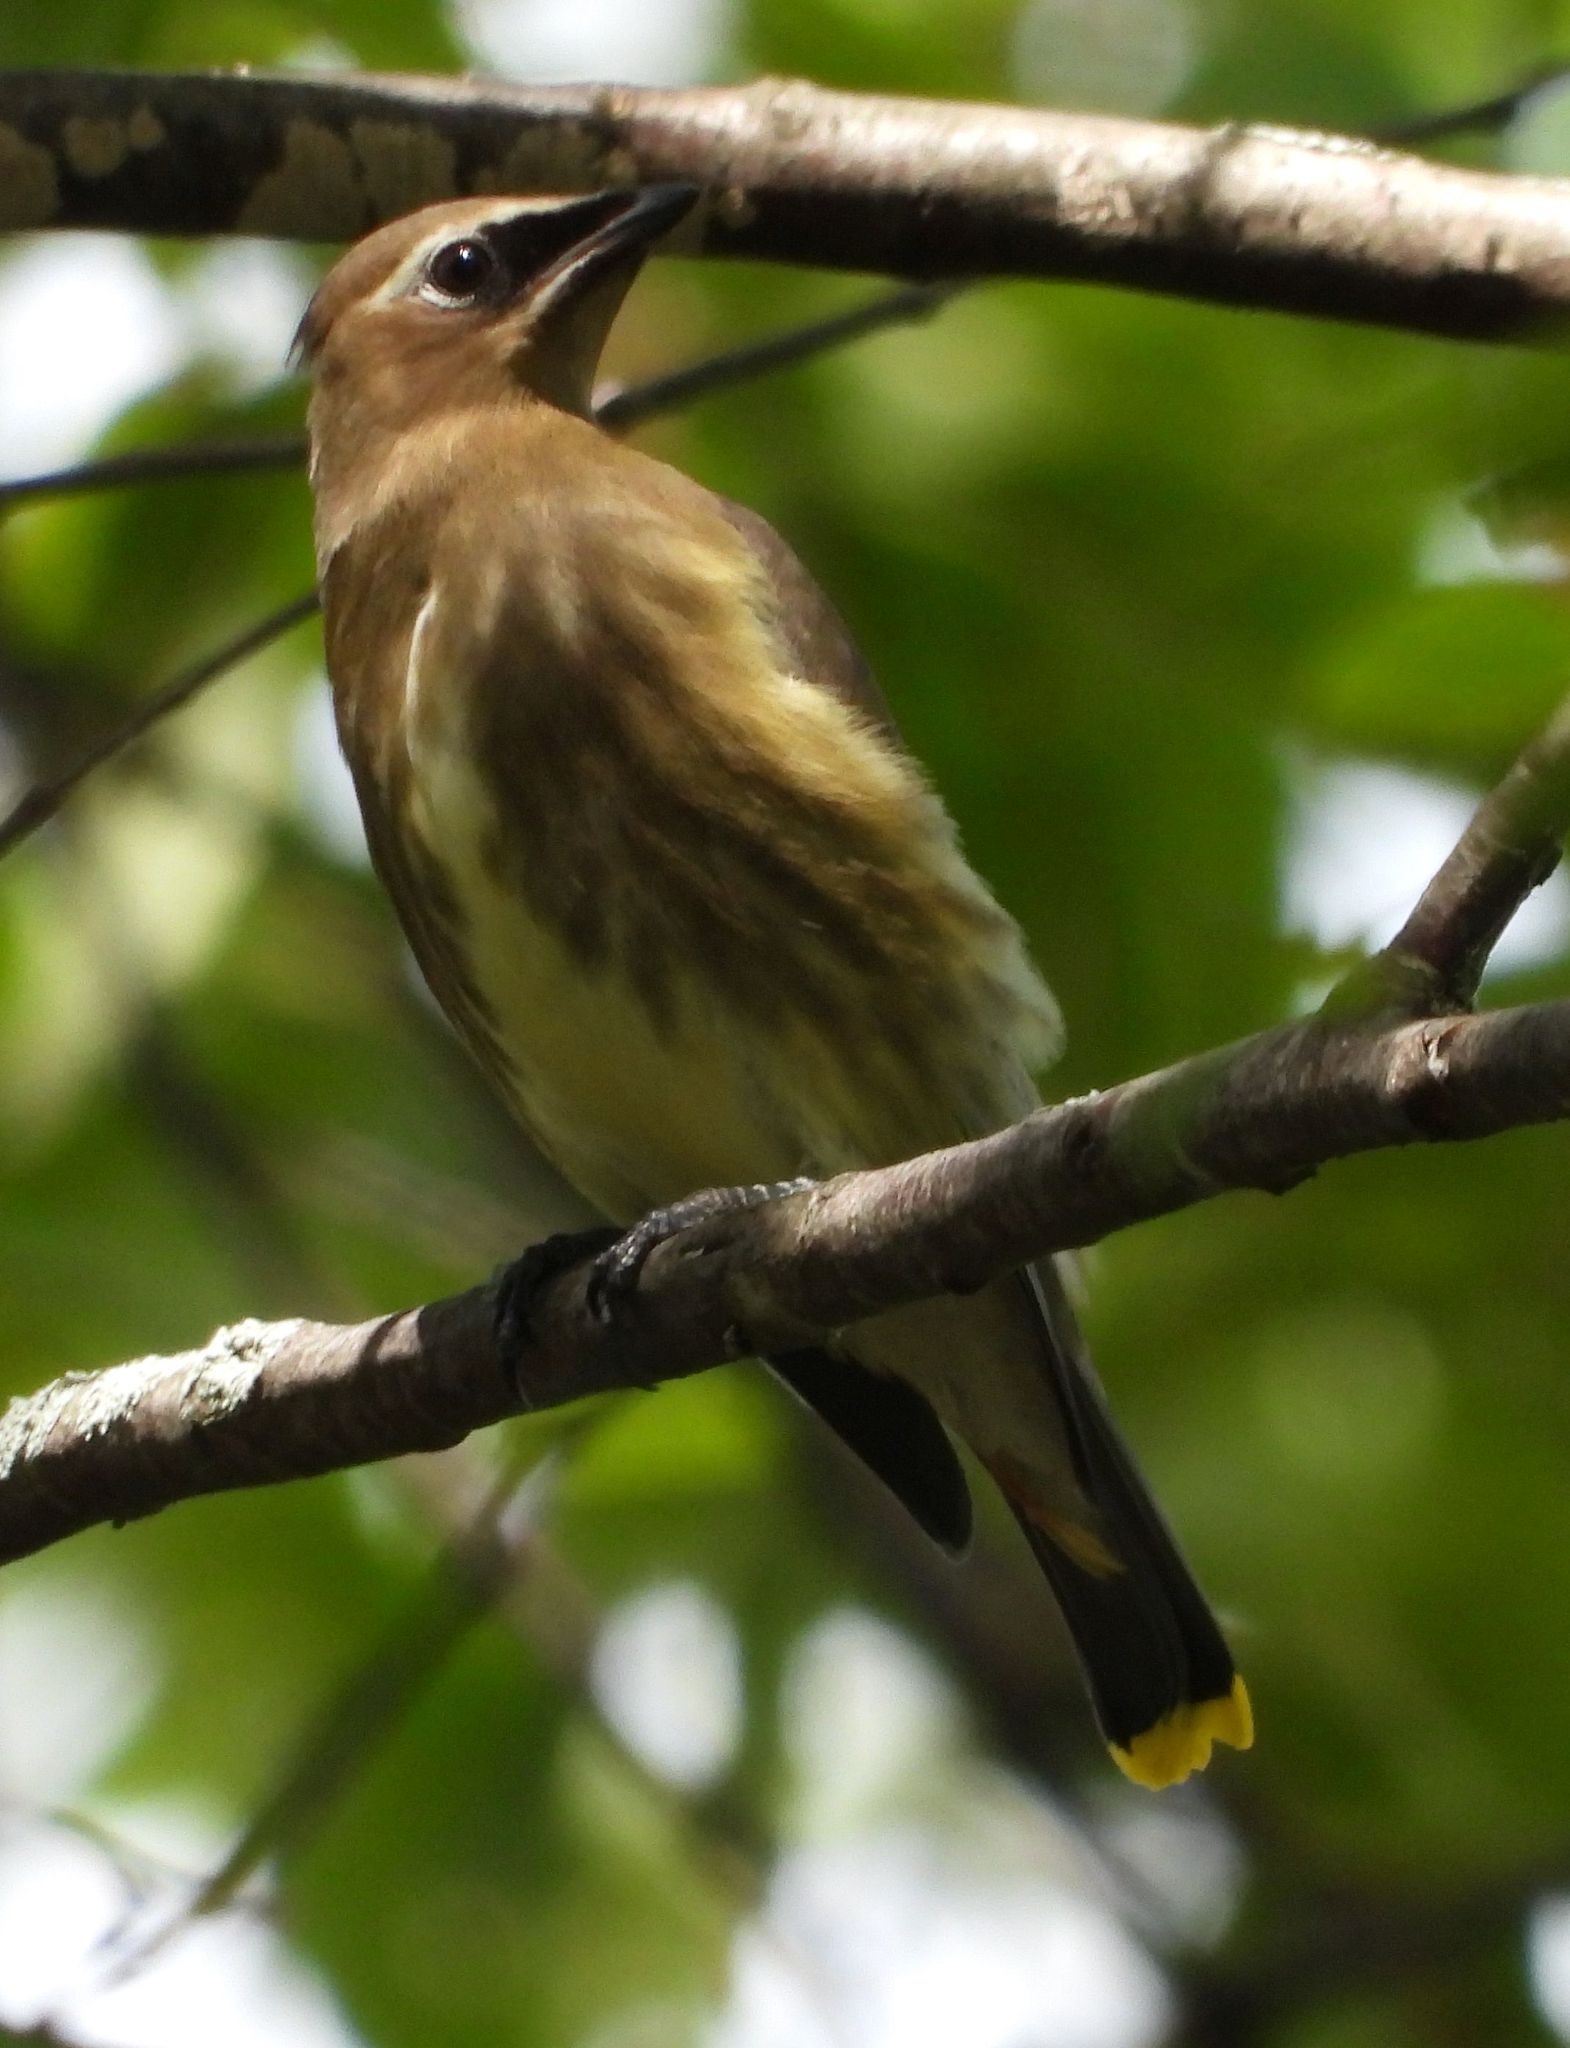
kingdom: Animalia
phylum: Chordata
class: Aves
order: Passeriformes
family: Bombycillidae
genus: Bombycilla
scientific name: Bombycilla cedrorum
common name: Cedar waxwing
